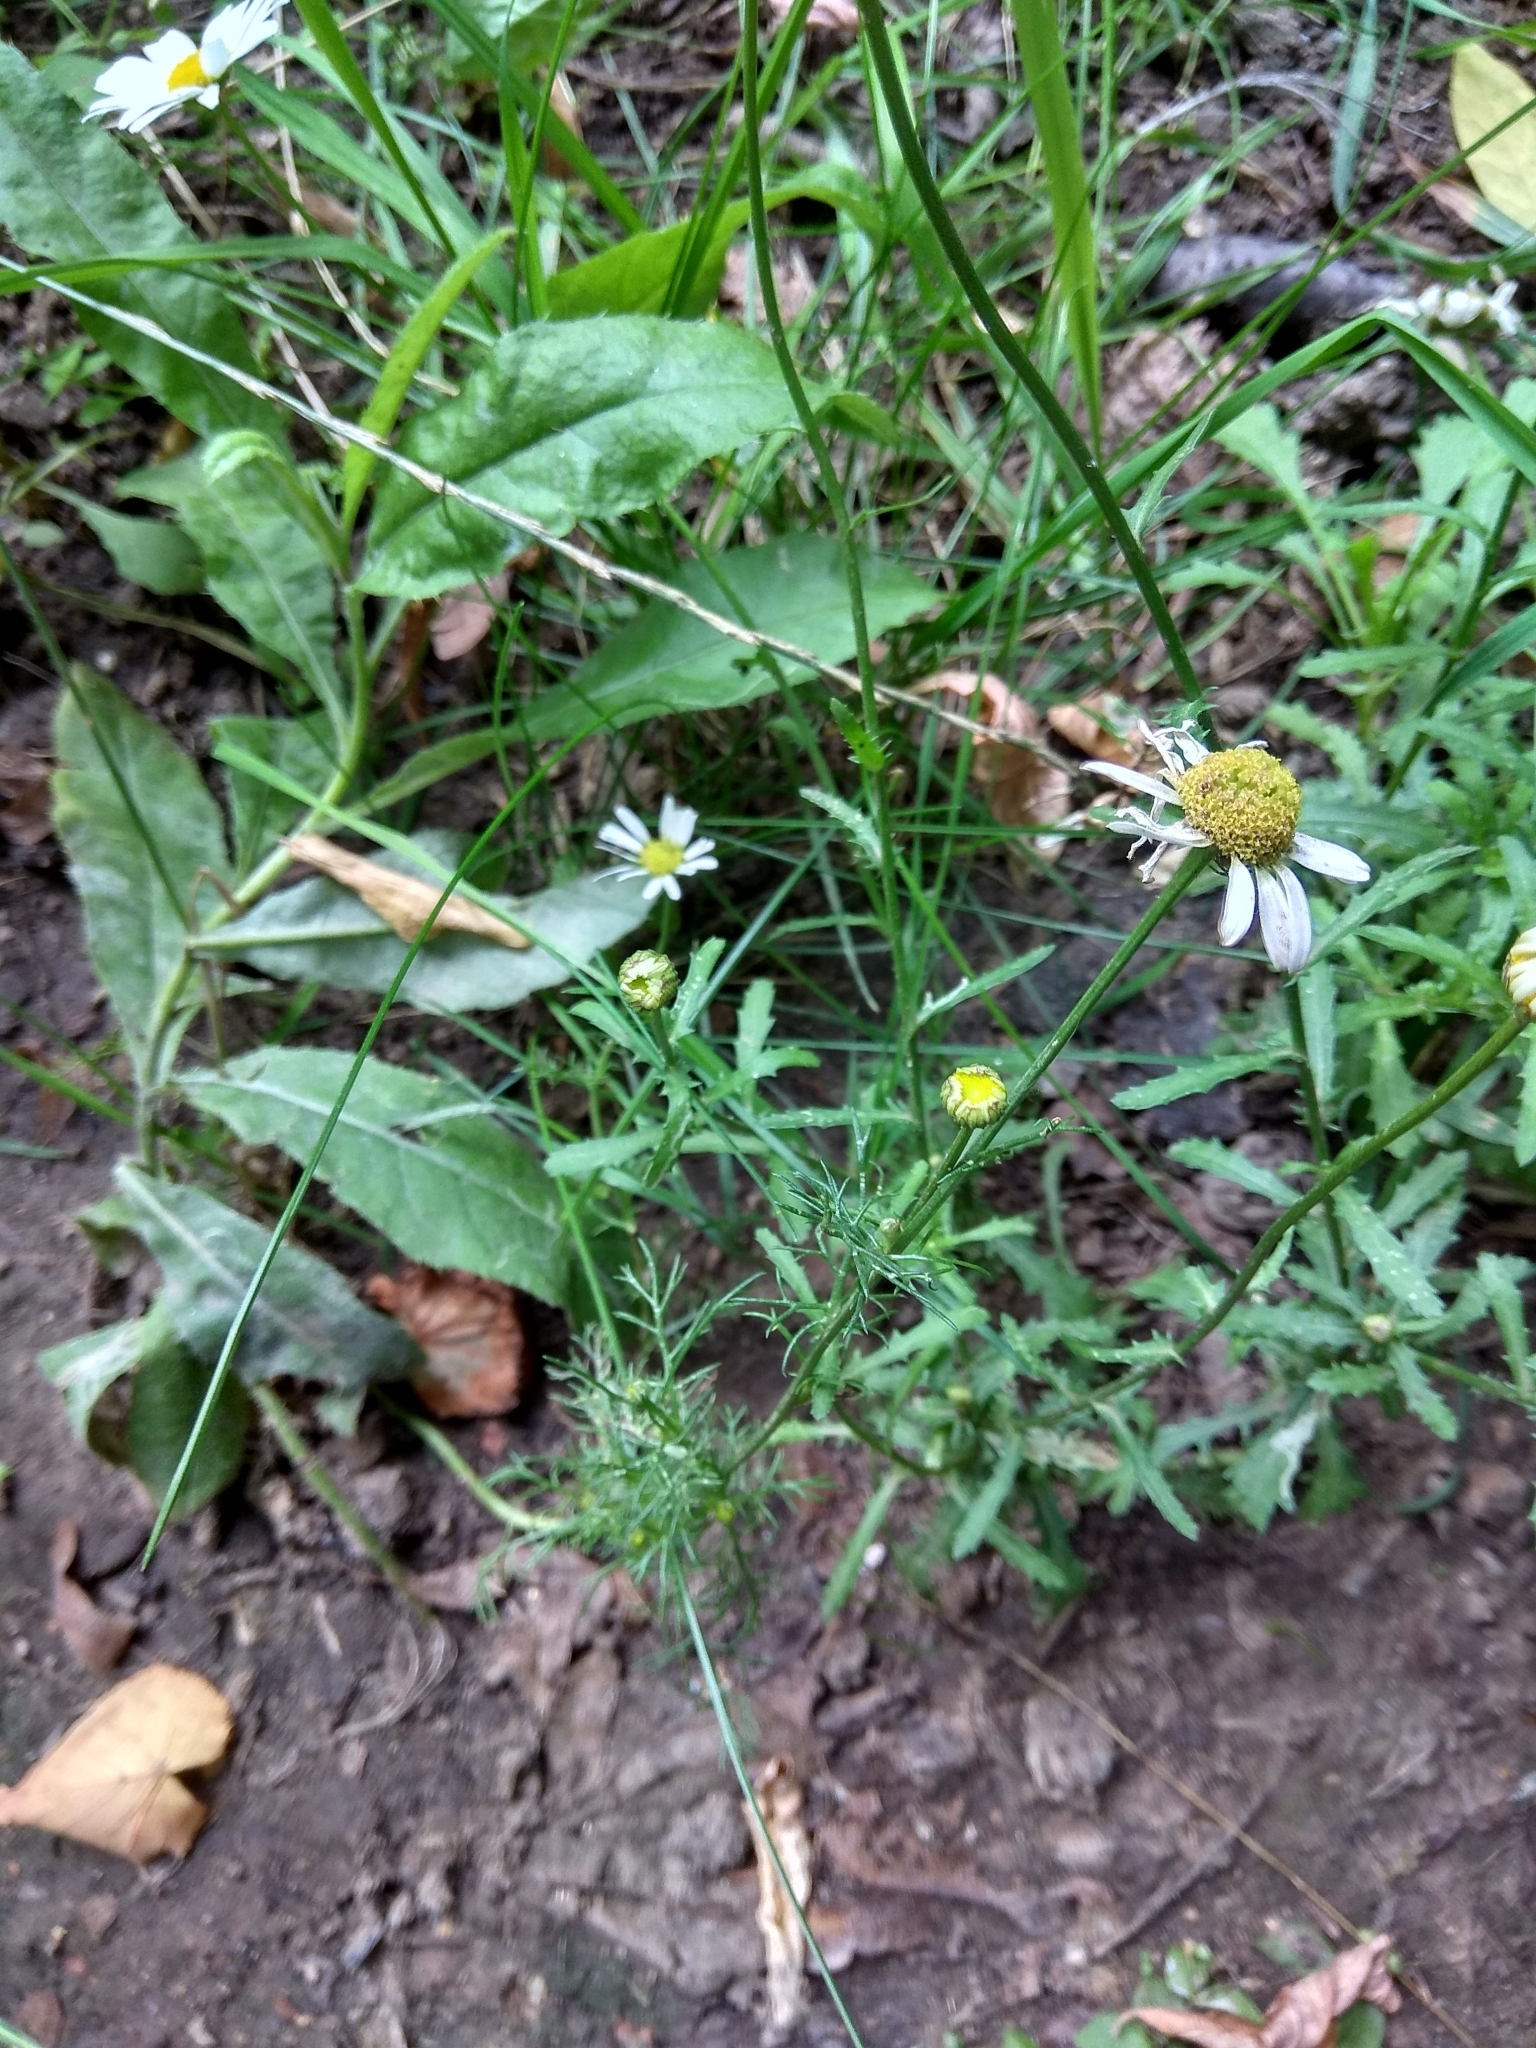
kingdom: Plantae
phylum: Tracheophyta
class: Magnoliopsida
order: Asterales
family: Asteraceae
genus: Tripleurospermum
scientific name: Tripleurospermum inodorum
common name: Scentless mayweed
